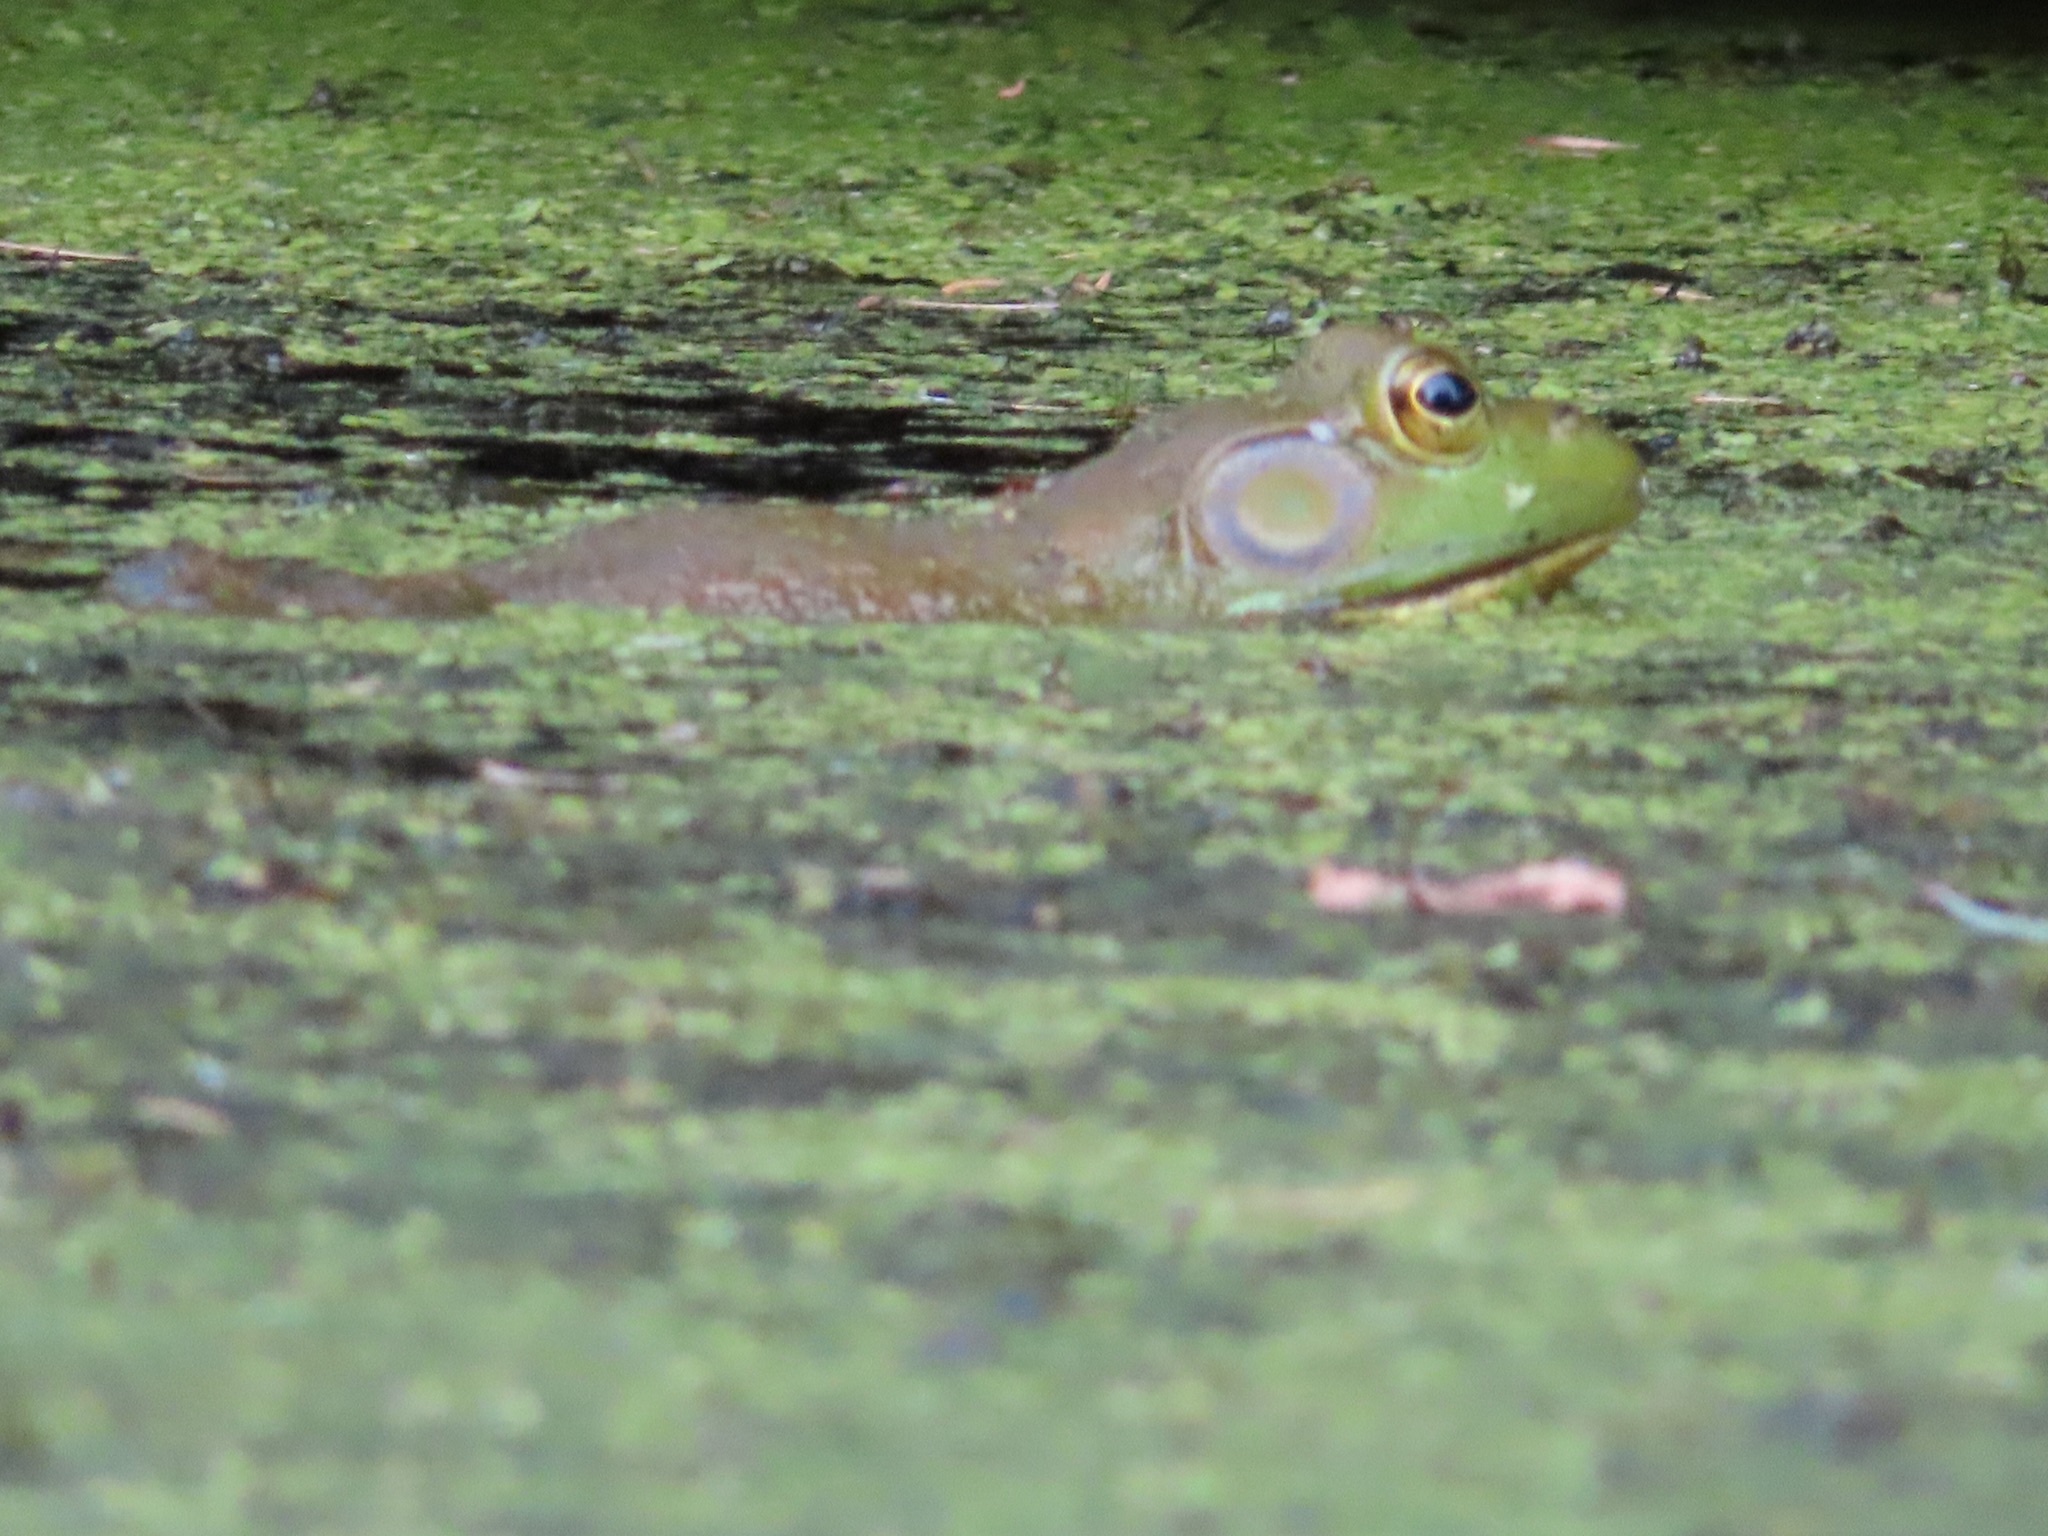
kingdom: Animalia
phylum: Chordata
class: Amphibia
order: Anura
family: Ranidae
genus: Lithobates
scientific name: Lithobates catesbeianus
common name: American bullfrog
